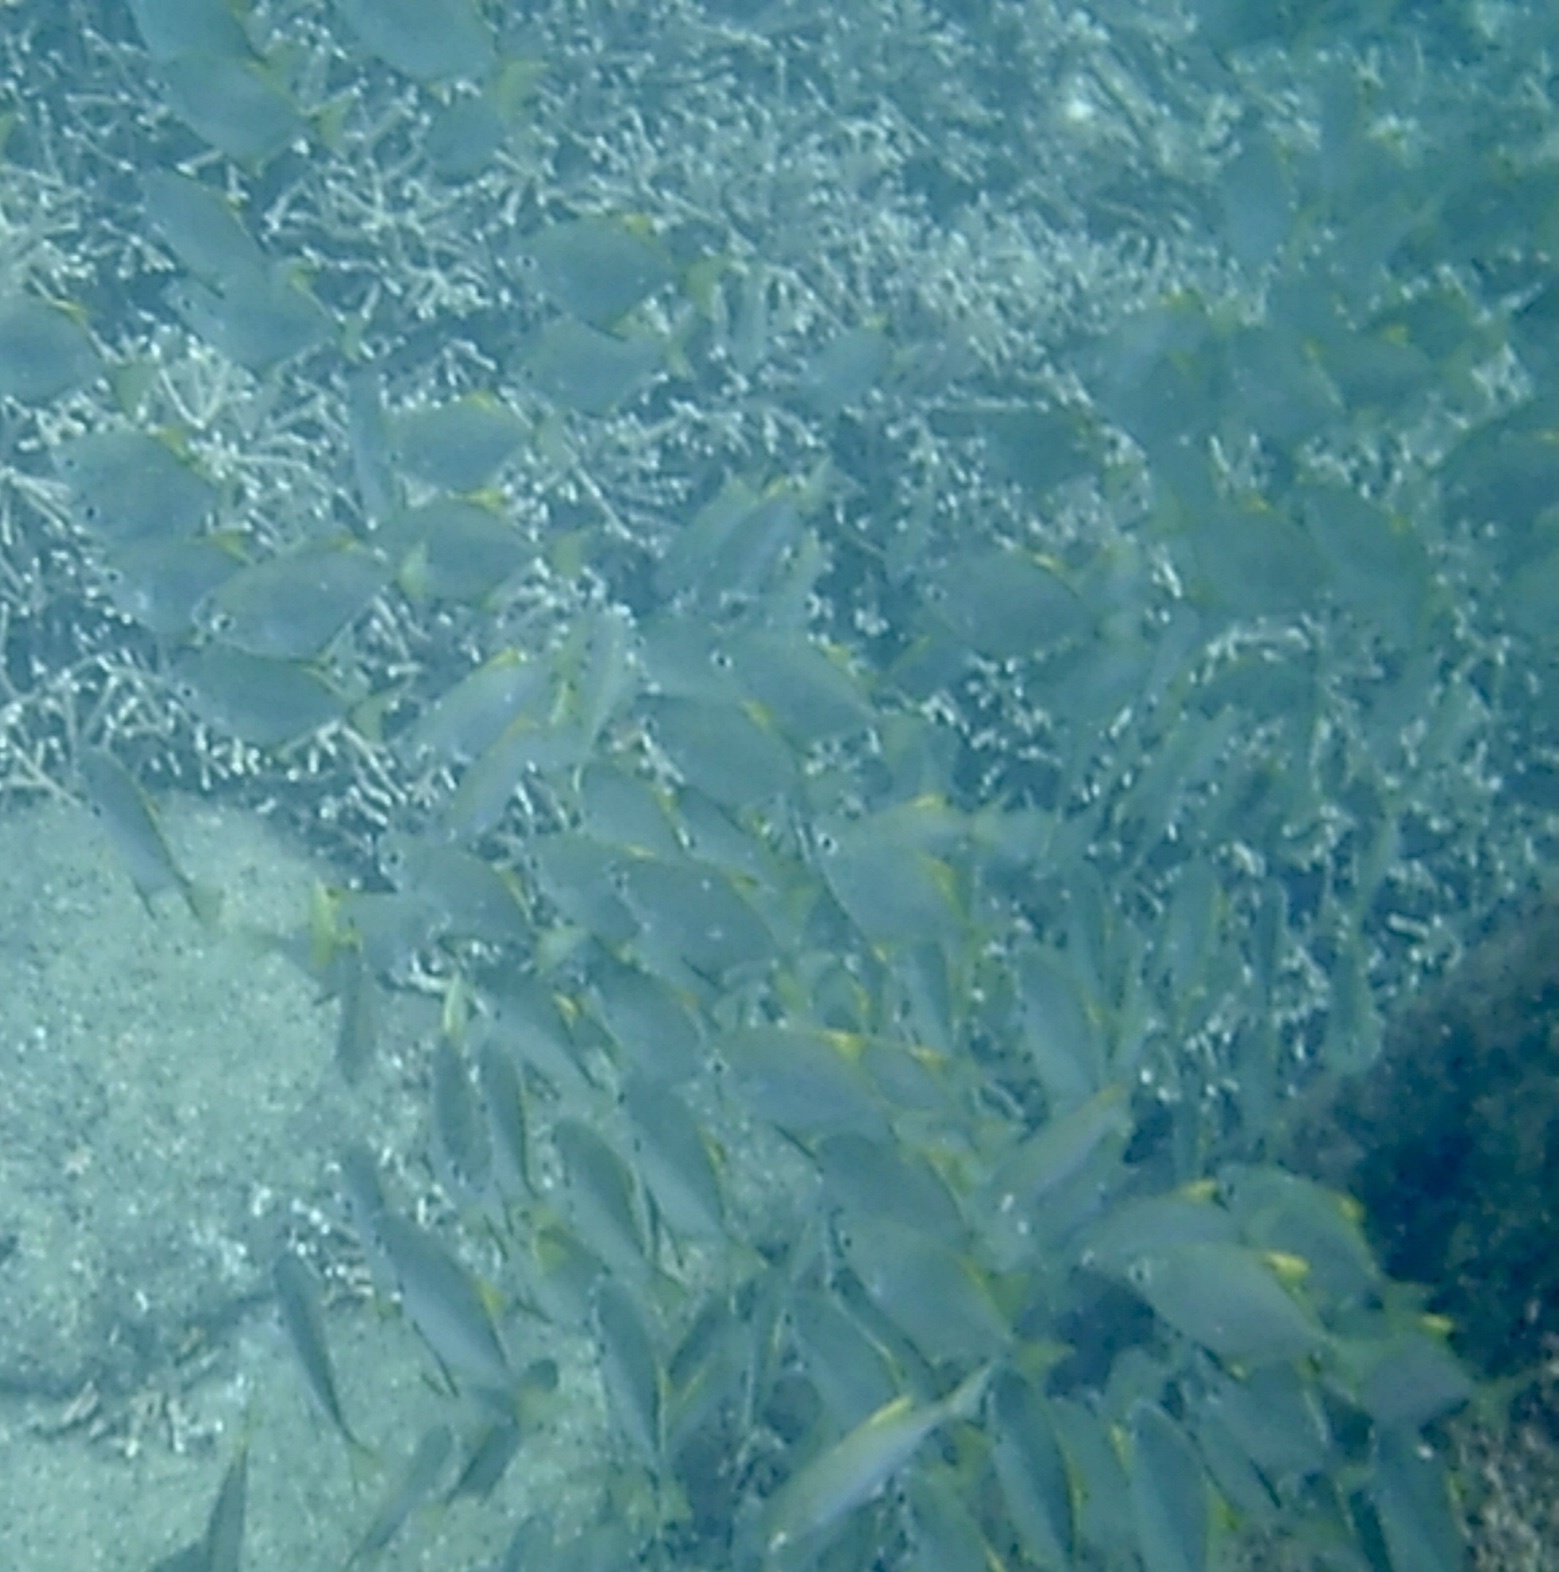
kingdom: Animalia
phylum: Chordata
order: Perciformes
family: Monodactylidae
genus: Monodactylus
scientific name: Monodactylus argenteus
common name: Silver moony
